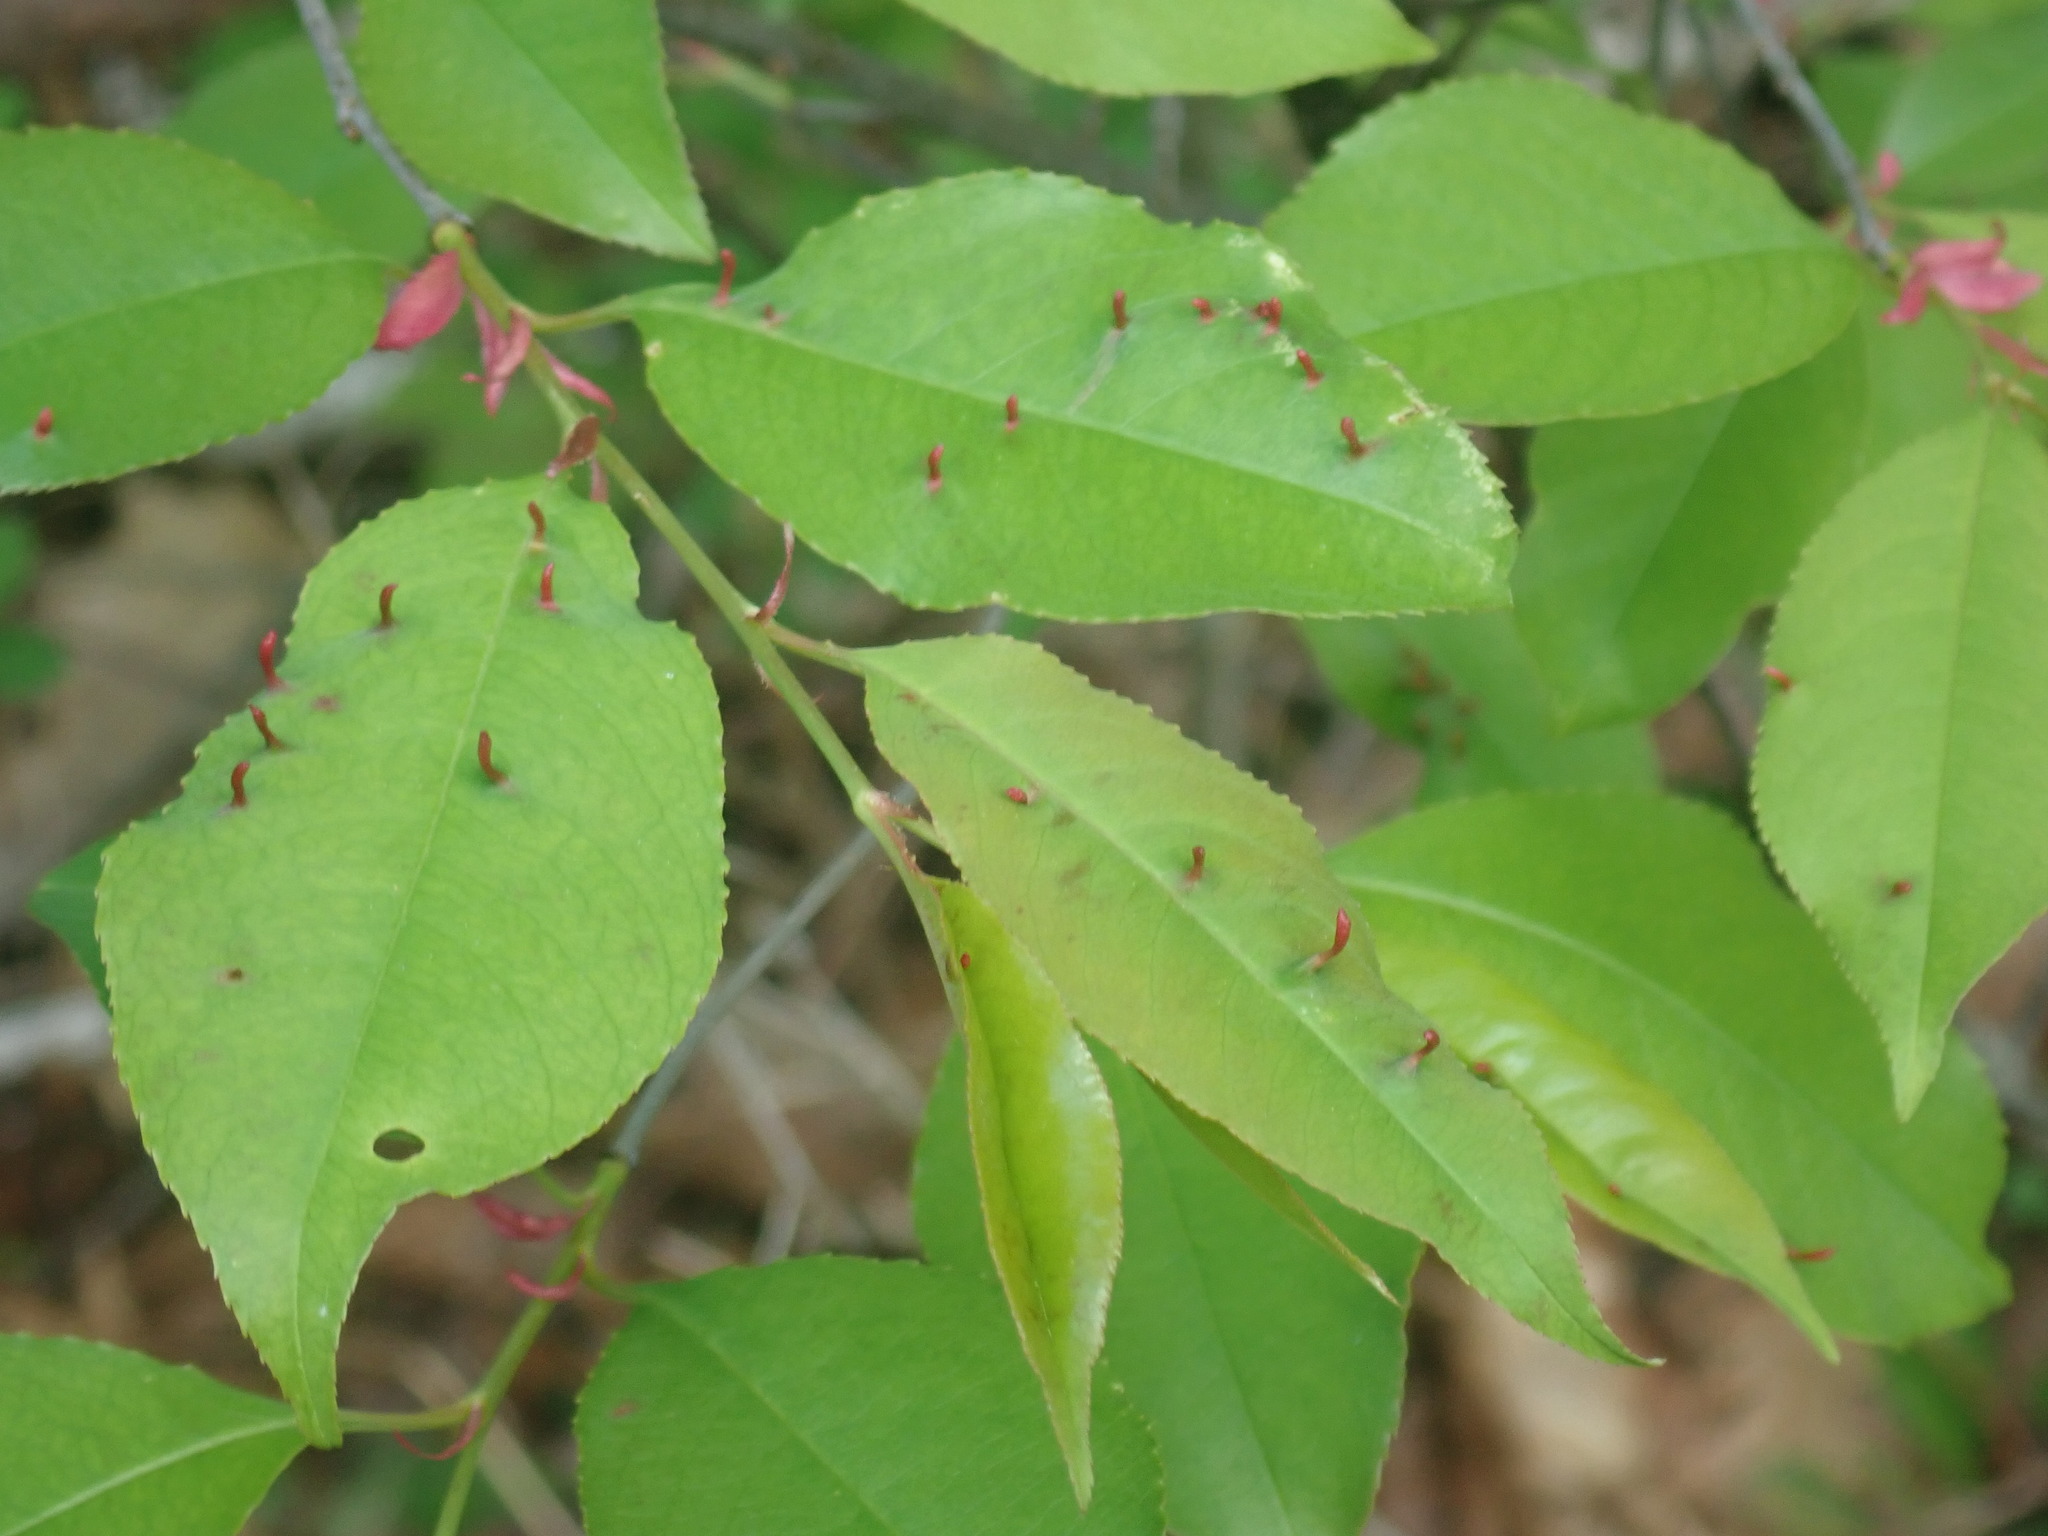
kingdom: Animalia
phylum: Arthropoda
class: Arachnida
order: Trombidiformes
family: Eriophyidae
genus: Eriophyes
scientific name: Eriophyes
